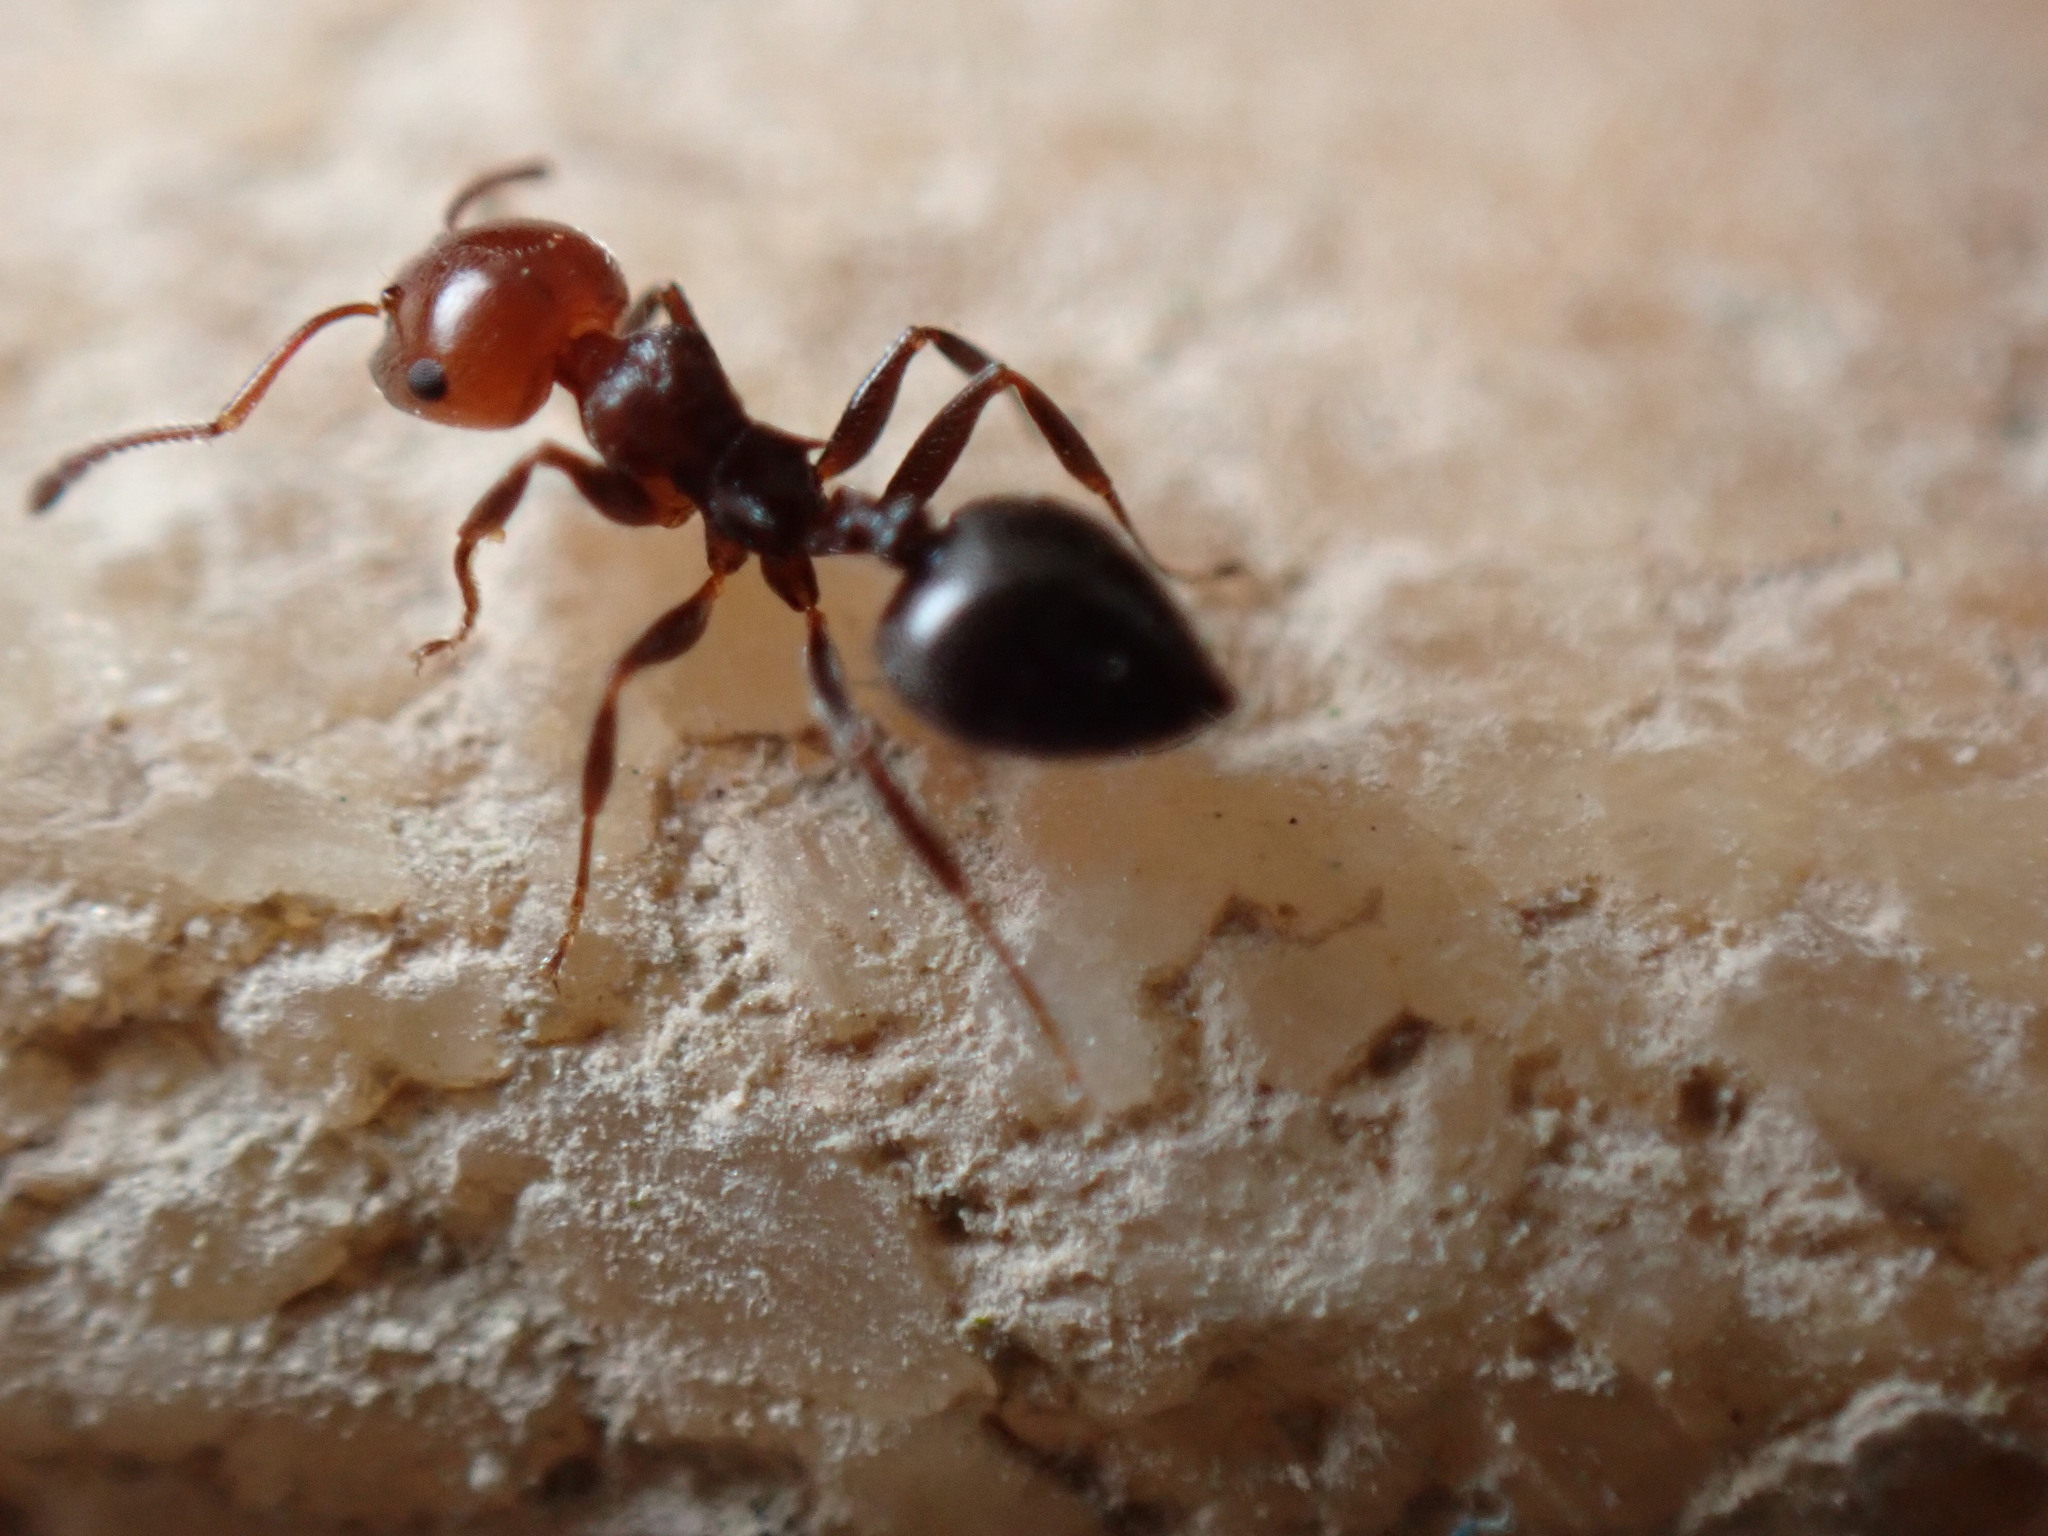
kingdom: Animalia
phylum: Arthropoda
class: Insecta
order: Hymenoptera
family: Formicidae
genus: Crematogaster
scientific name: Crematogaster scutellaris
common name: Fourmi du liège
